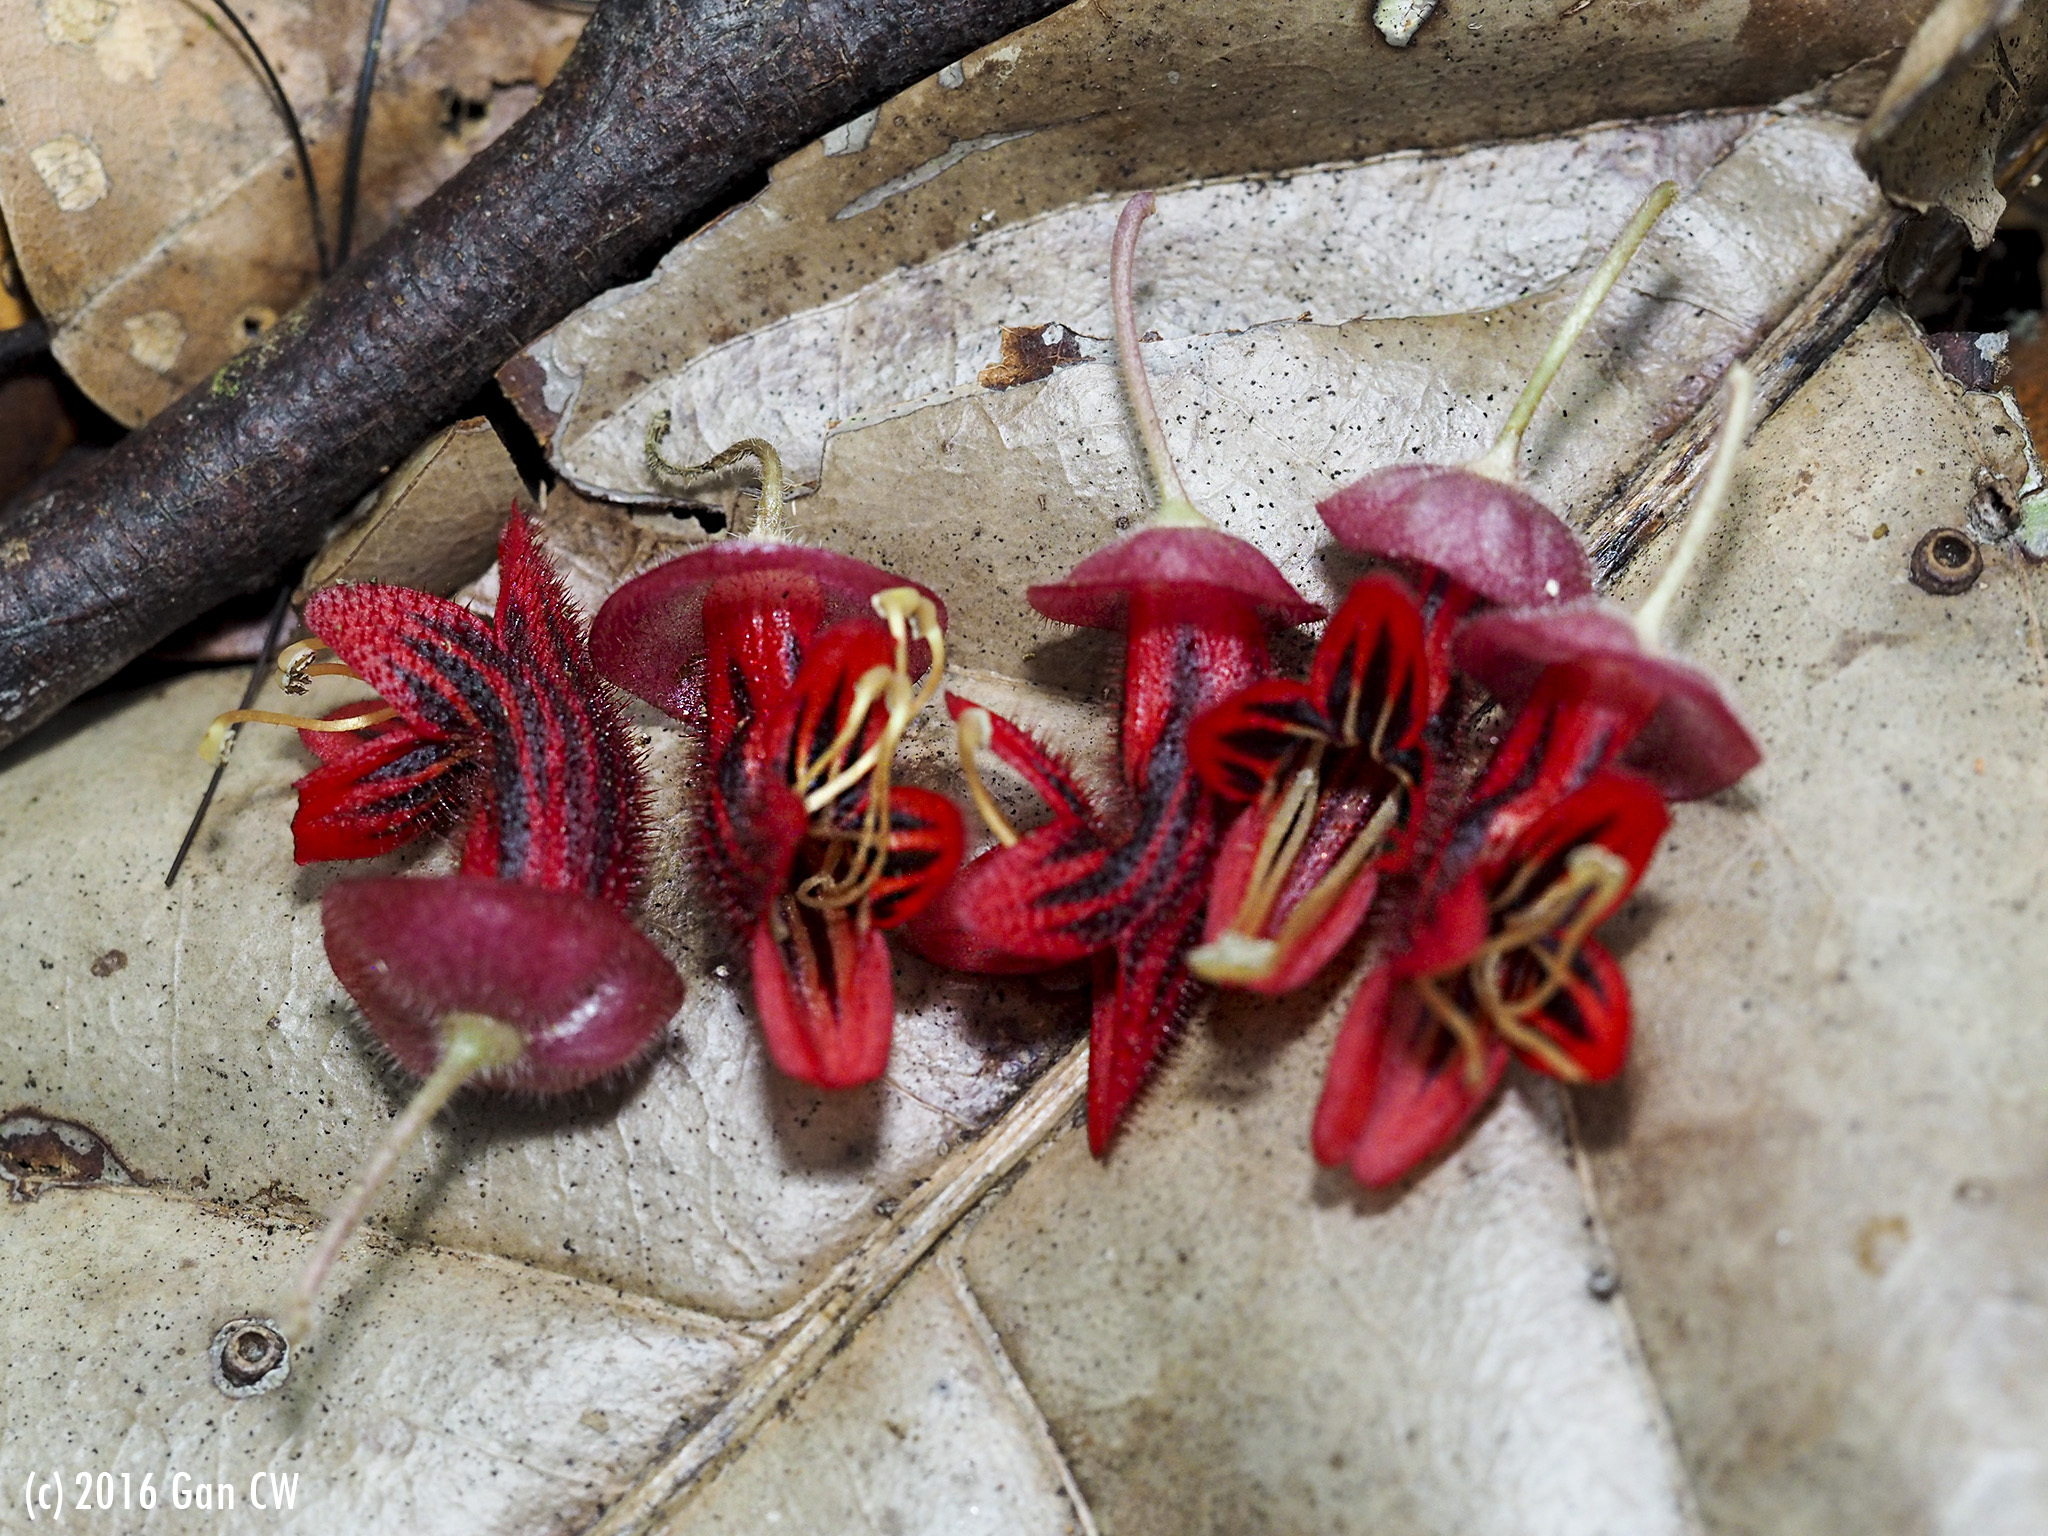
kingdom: Plantae
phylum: Tracheophyta
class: Magnoliopsida
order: Lamiales
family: Gesneriaceae
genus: Aeschynanthus
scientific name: Aeschynanthus tricolor
